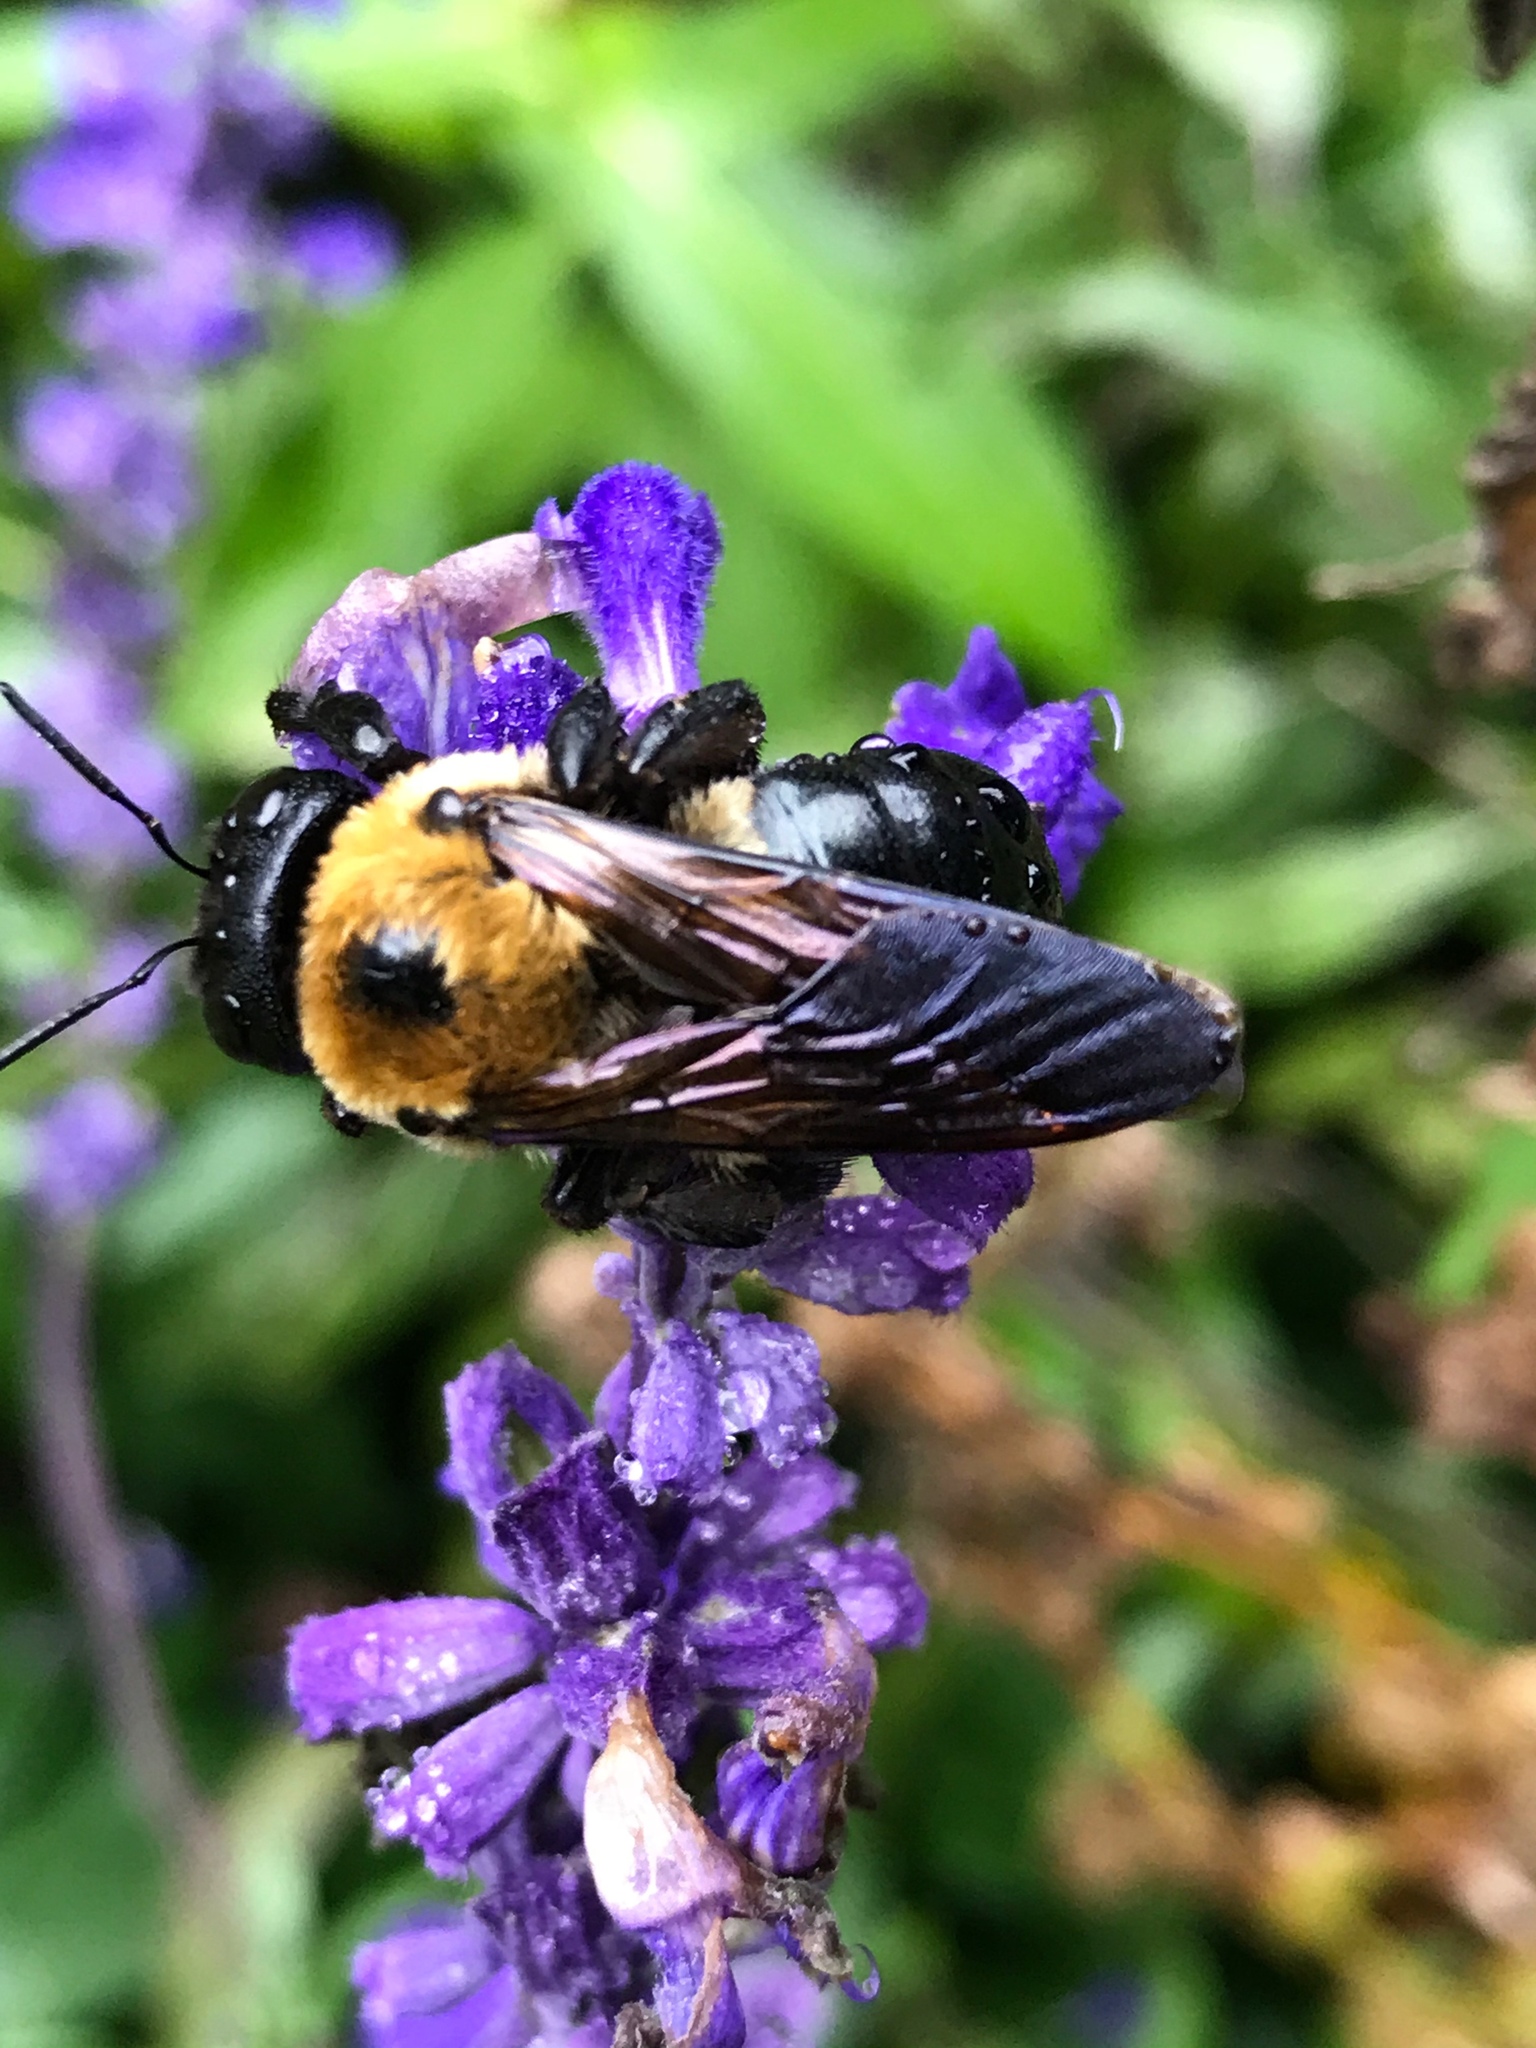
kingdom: Animalia
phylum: Arthropoda
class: Insecta
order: Hymenoptera
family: Apidae
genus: Xylocopa
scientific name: Xylocopa virginica
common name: Carpenter bee
